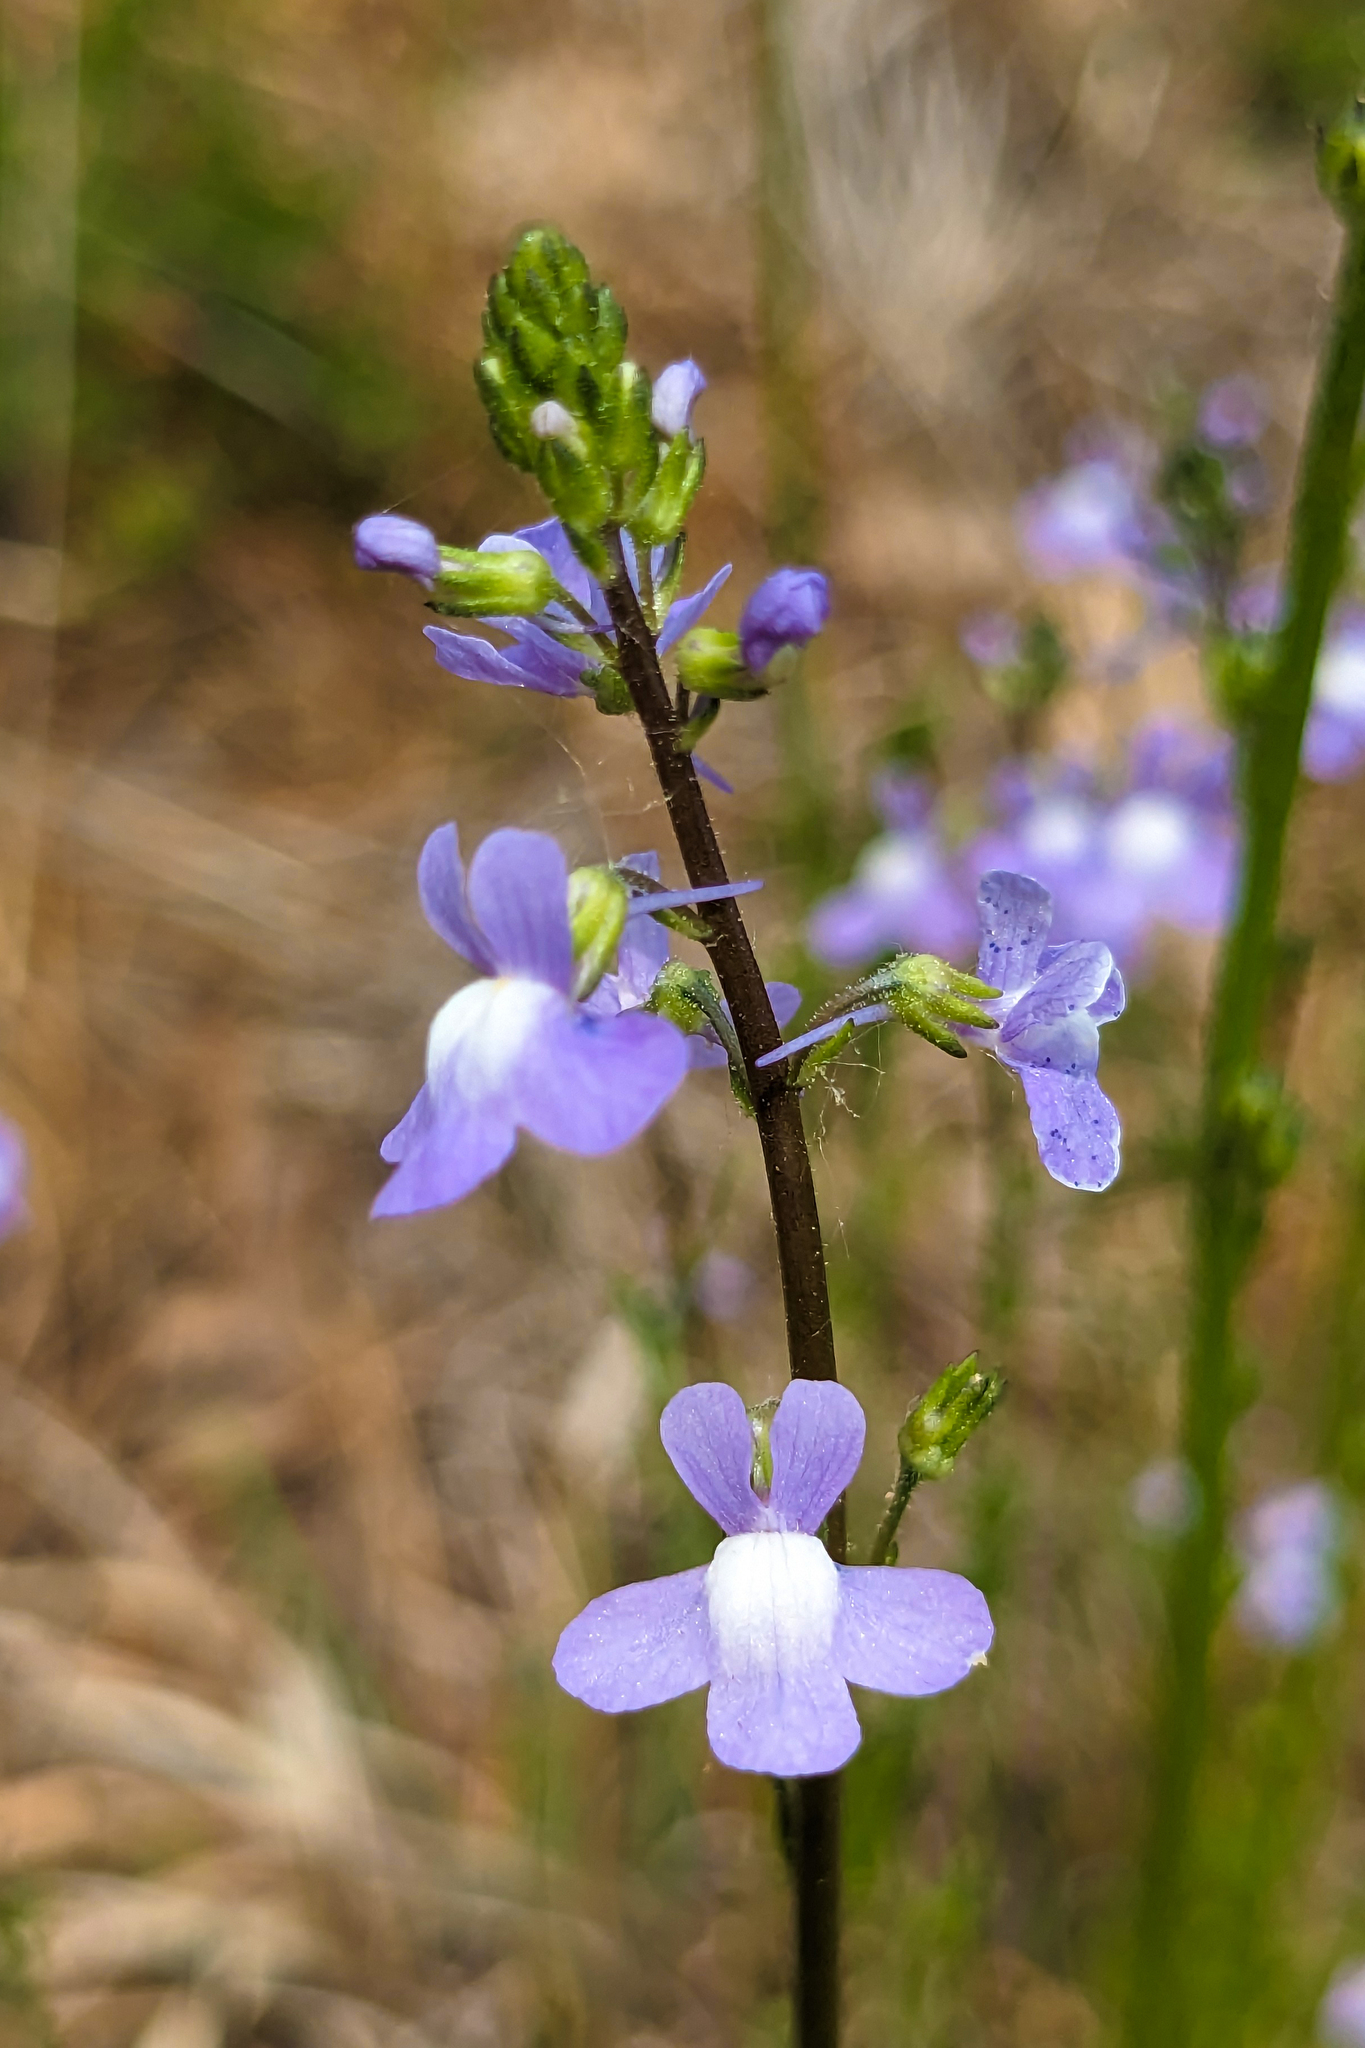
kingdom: Plantae
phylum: Tracheophyta
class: Magnoliopsida
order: Lamiales
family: Plantaginaceae
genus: Nuttallanthus
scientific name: Nuttallanthus canadensis
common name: Blue toadflax
